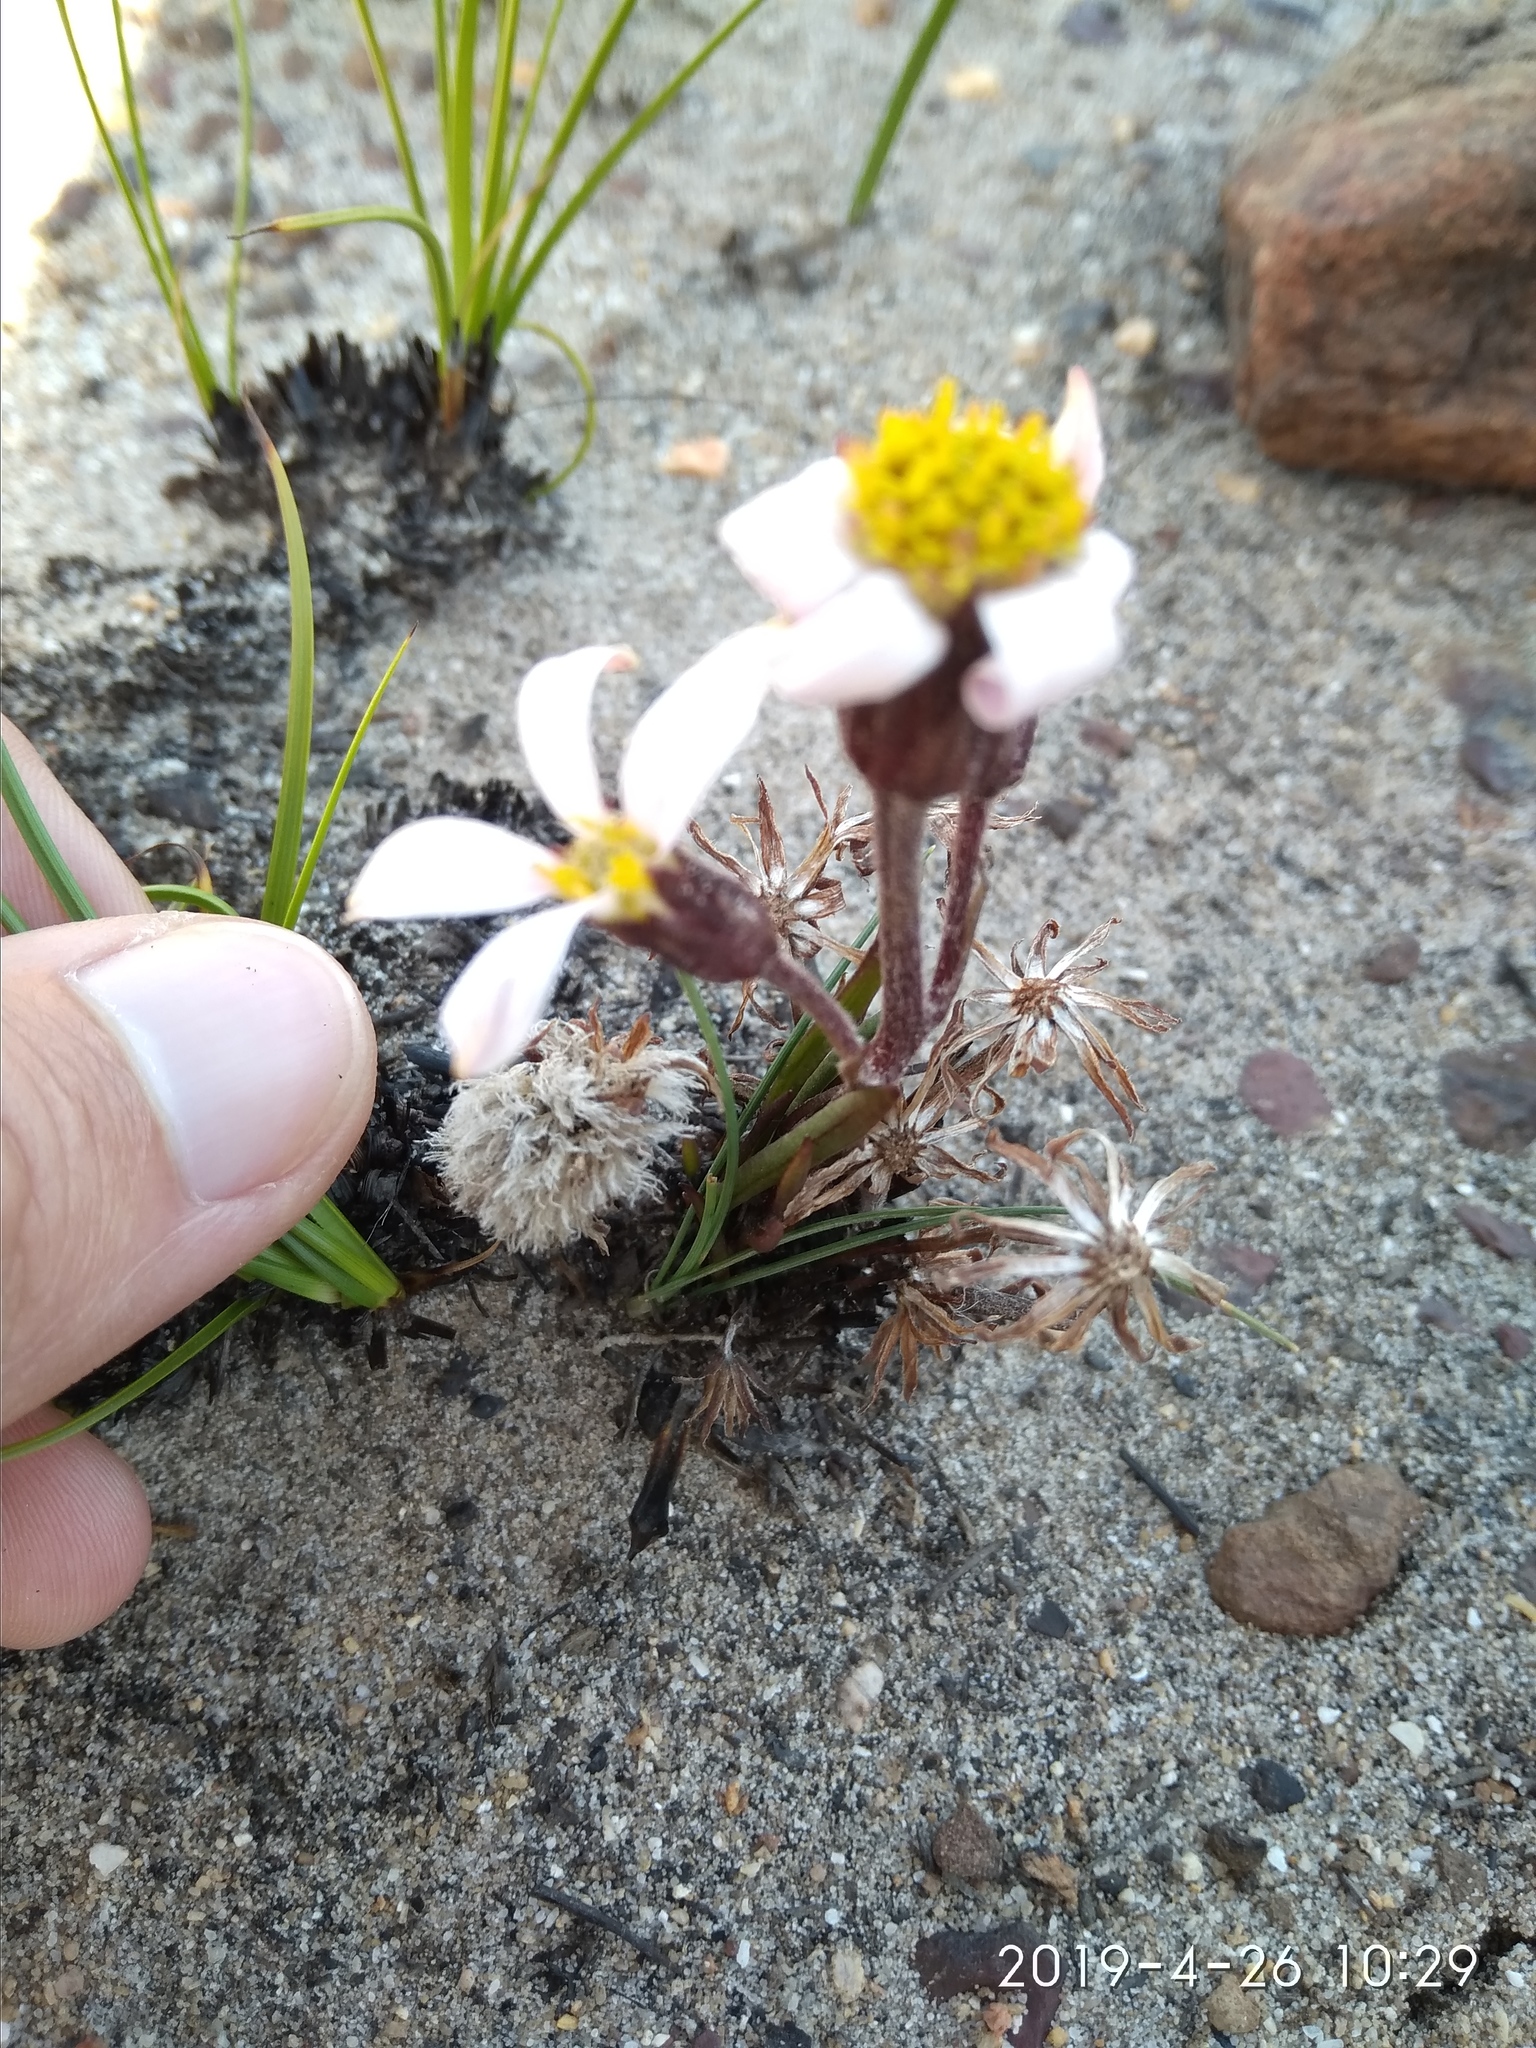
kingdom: Plantae
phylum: Tracheophyta
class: Magnoliopsida
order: Asterales
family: Asteraceae
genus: Mairia
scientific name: Mairia coriacea
